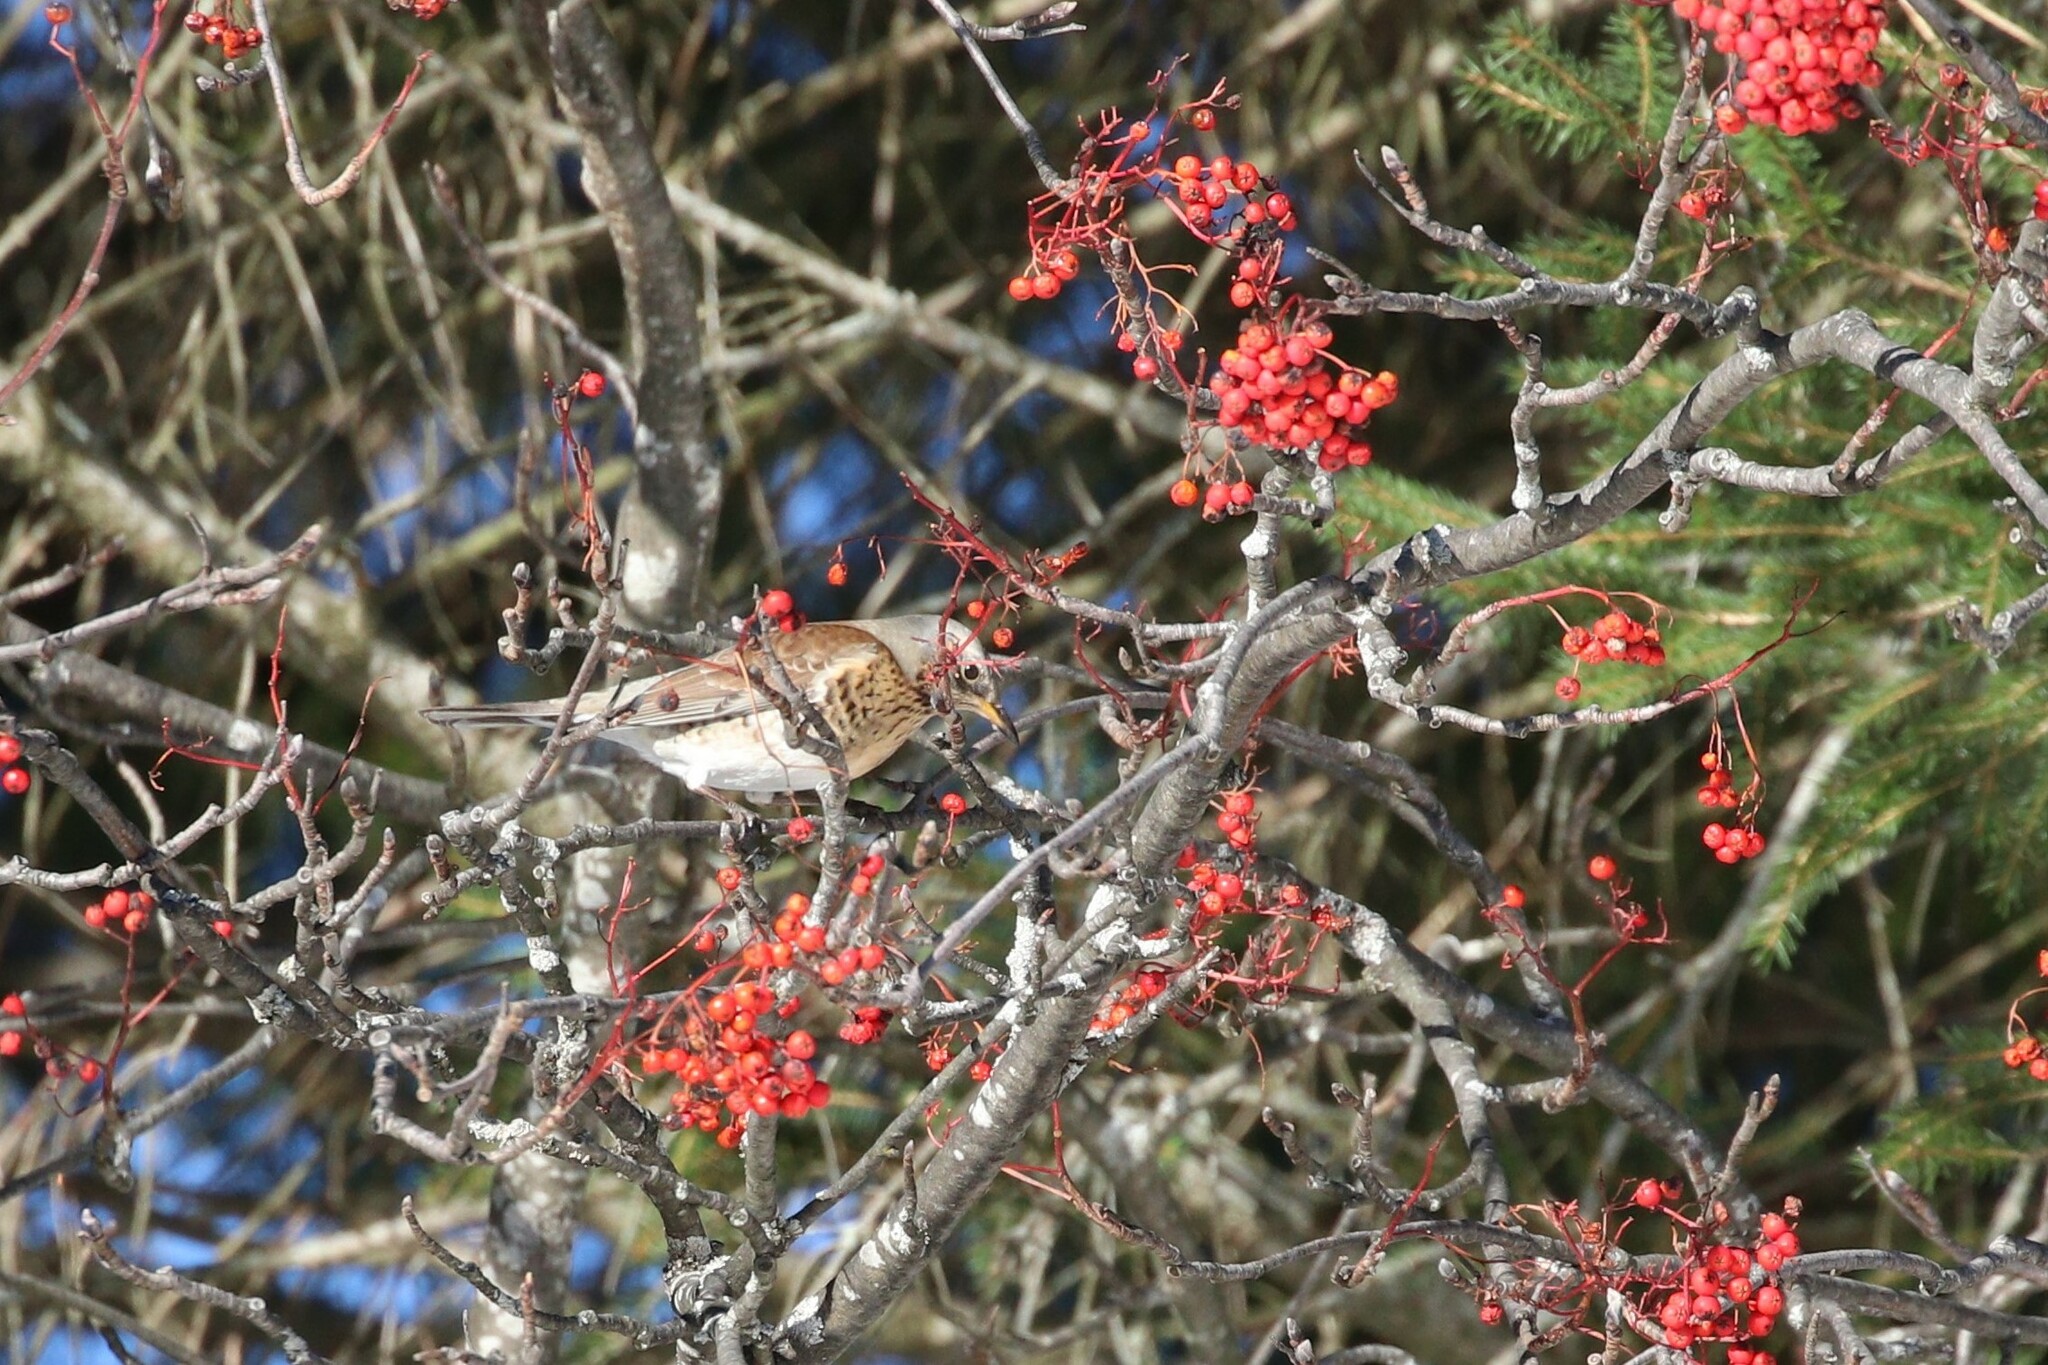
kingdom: Animalia
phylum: Chordata
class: Aves
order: Passeriformes
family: Turdidae
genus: Turdus
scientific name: Turdus pilaris
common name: Fieldfare
